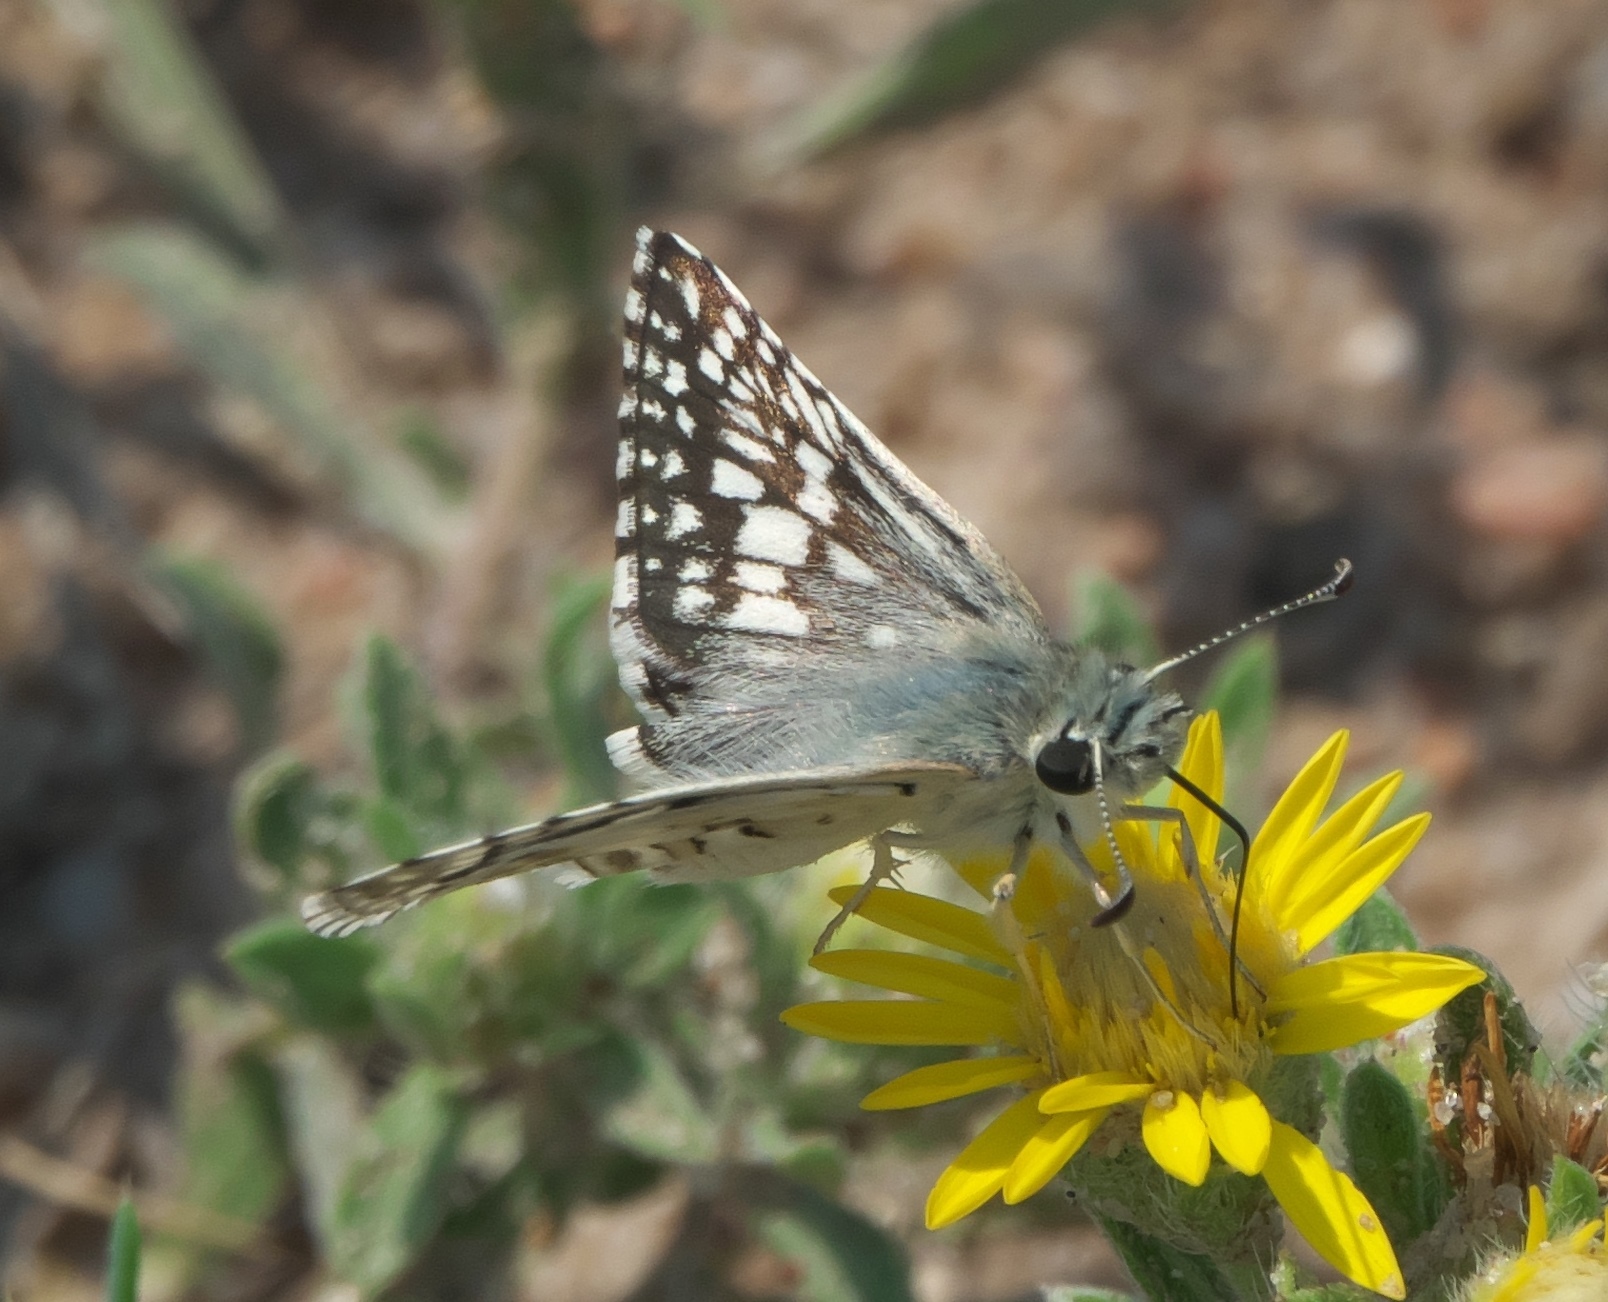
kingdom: Animalia
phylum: Arthropoda
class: Insecta
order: Lepidoptera
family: Hesperiidae
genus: Burnsius
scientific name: Burnsius communis
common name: Common checkered-skipper
